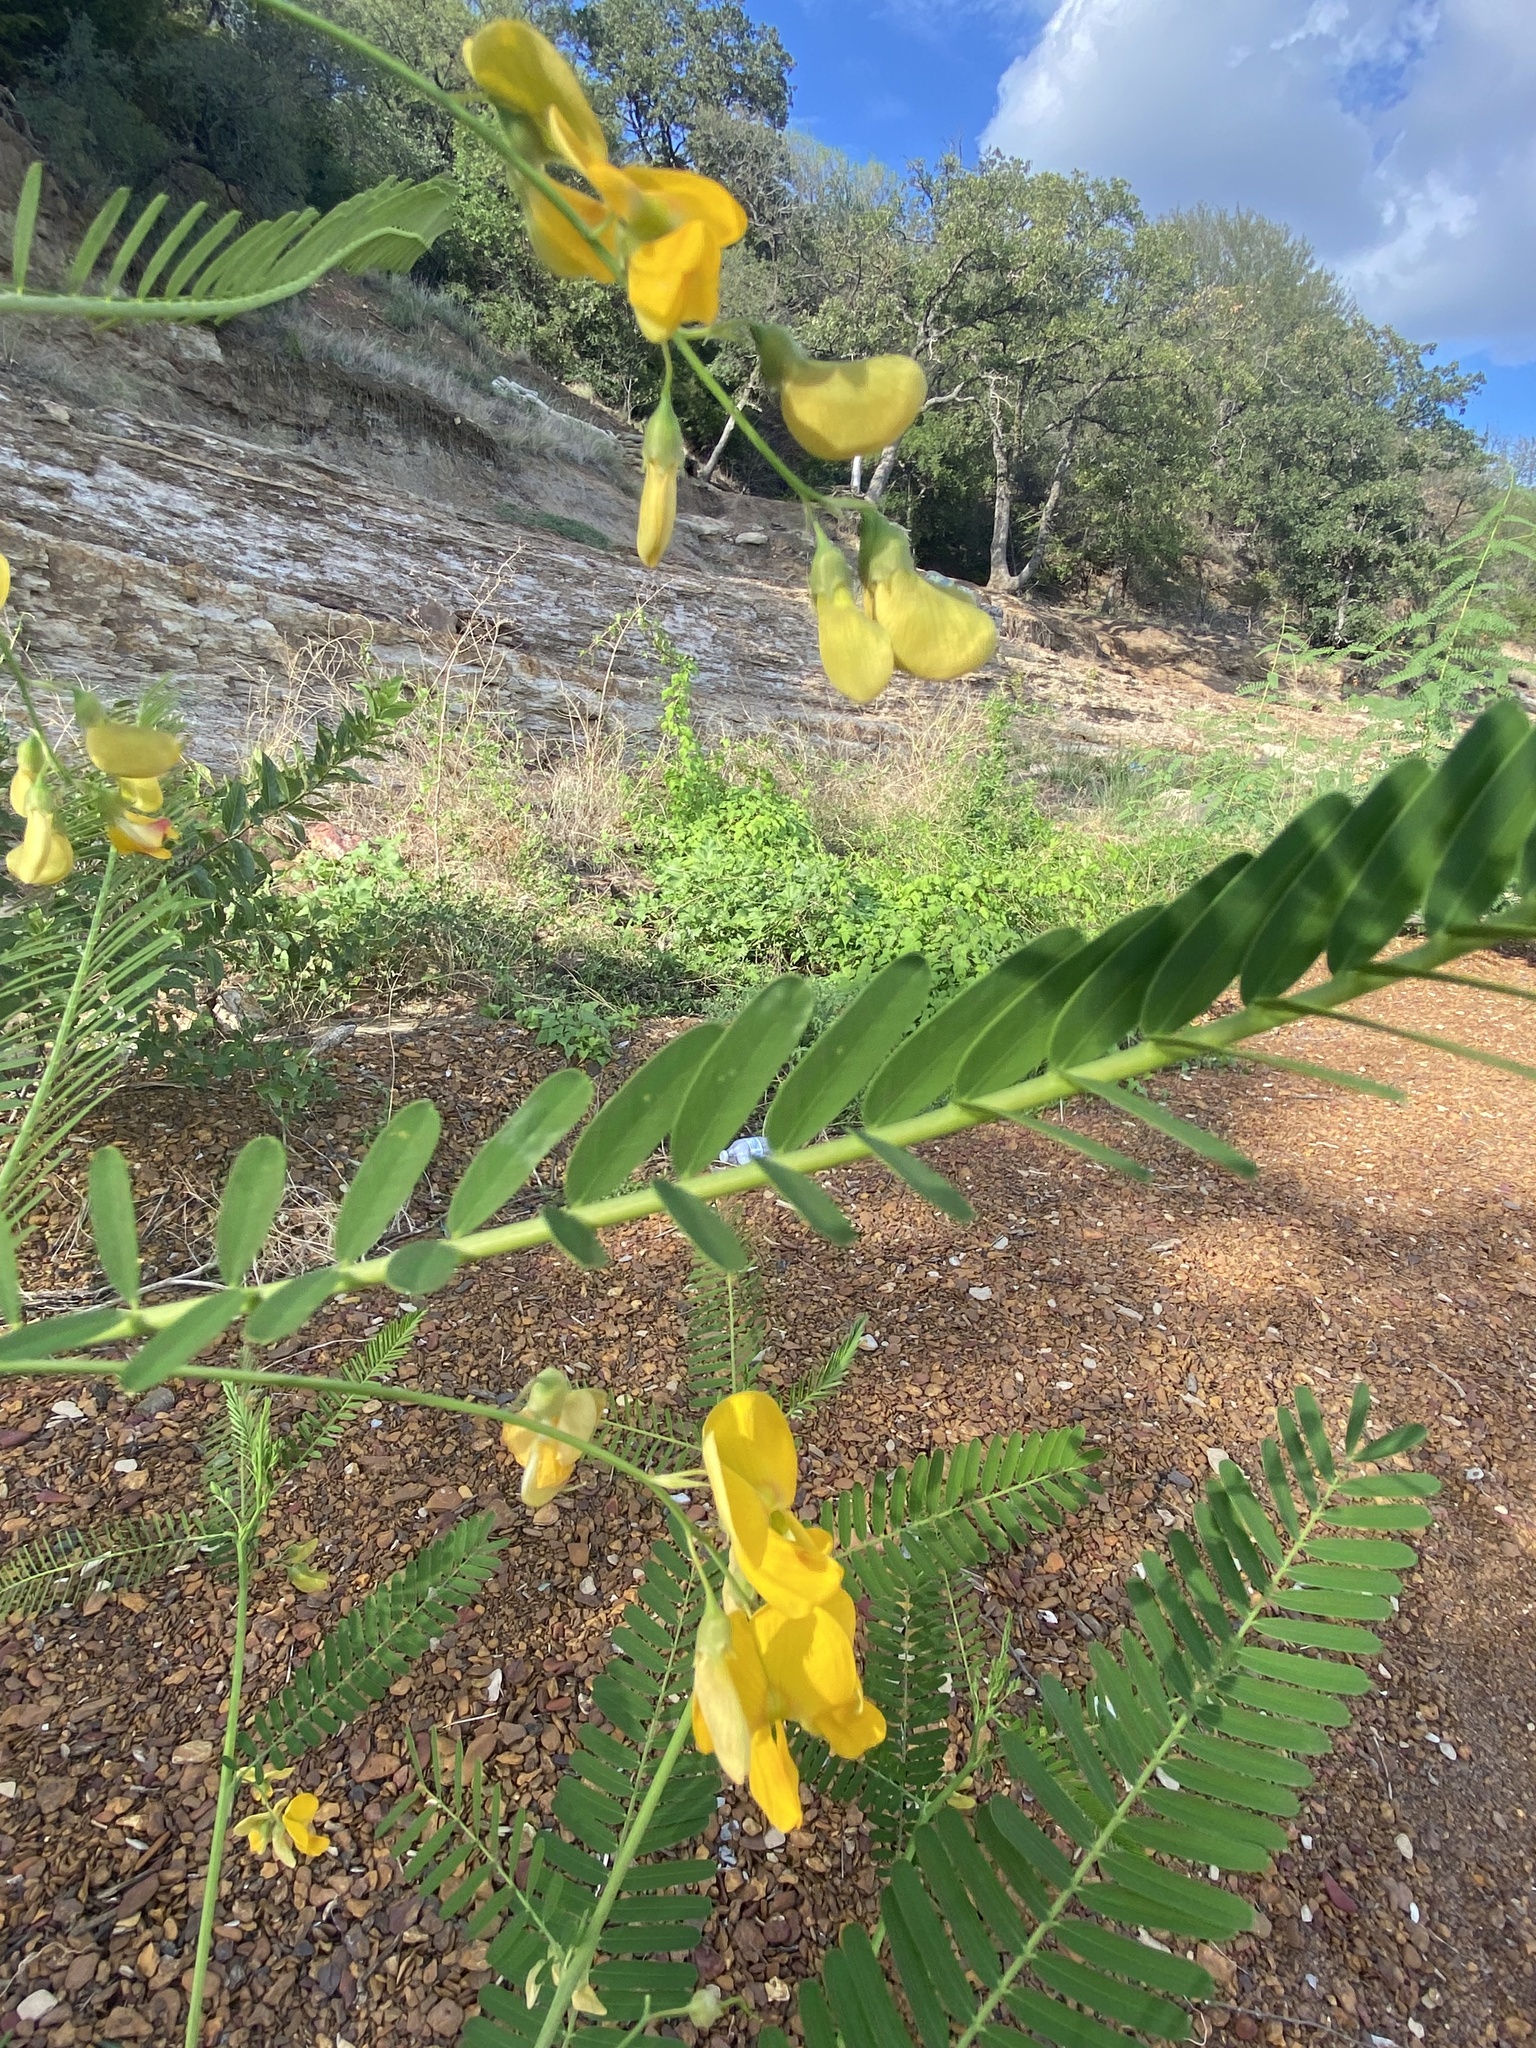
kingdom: Plantae
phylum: Tracheophyta
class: Magnoliopsida
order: Fabales
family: Fabaceae
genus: Sesbania
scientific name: Sesbania herbacea
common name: Bigpod sesbania
